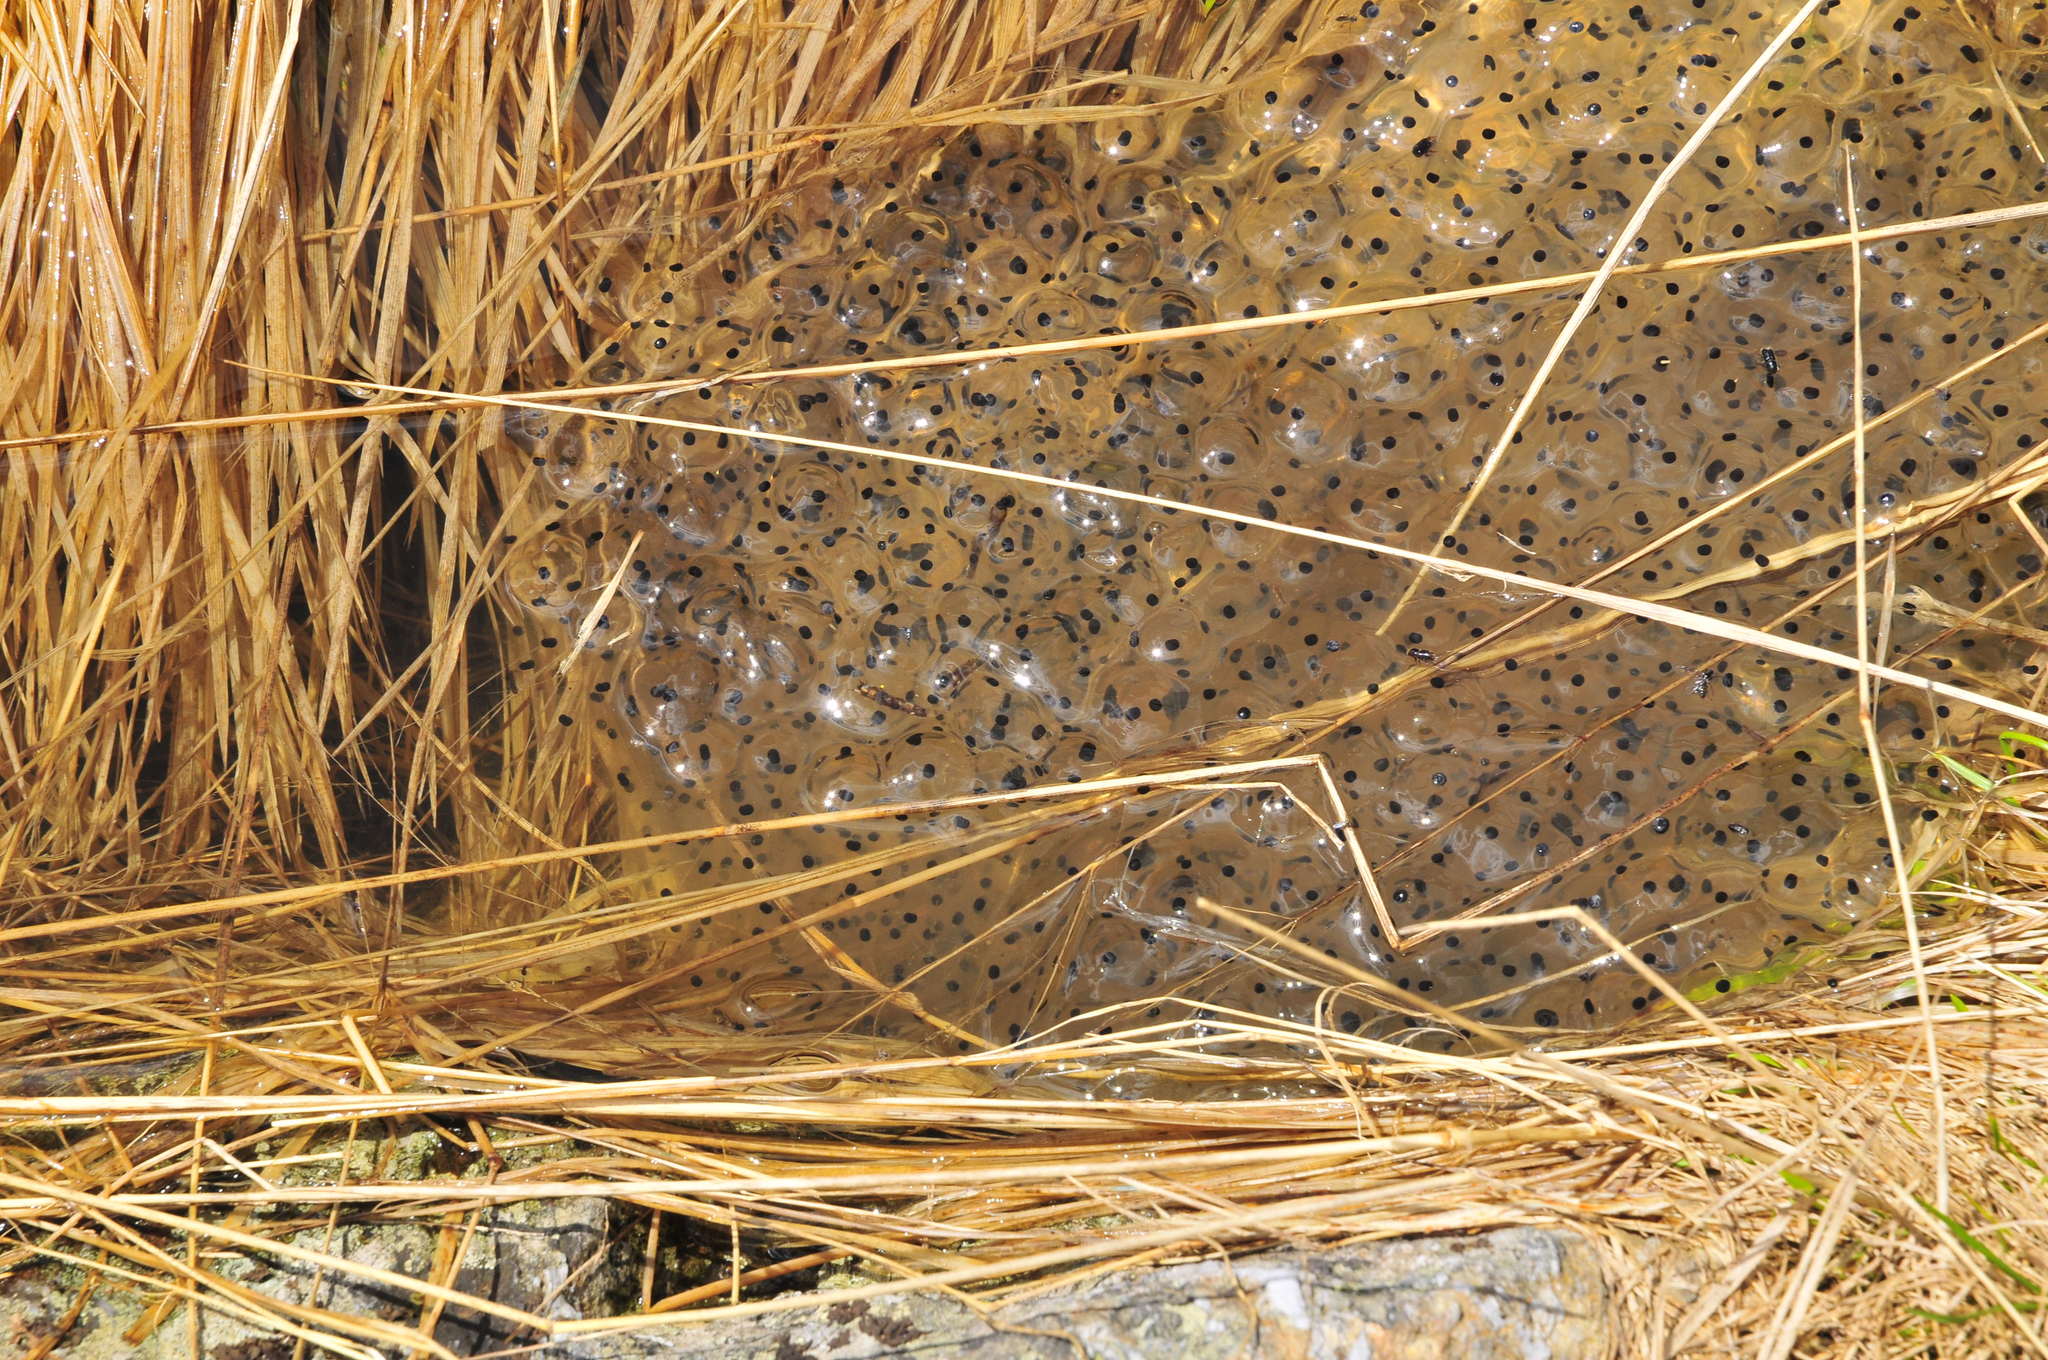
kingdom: Animalia
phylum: Chordata
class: Amphibia
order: Anura
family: Ranidae
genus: Rana
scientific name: Rana temporaria
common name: Common frog
